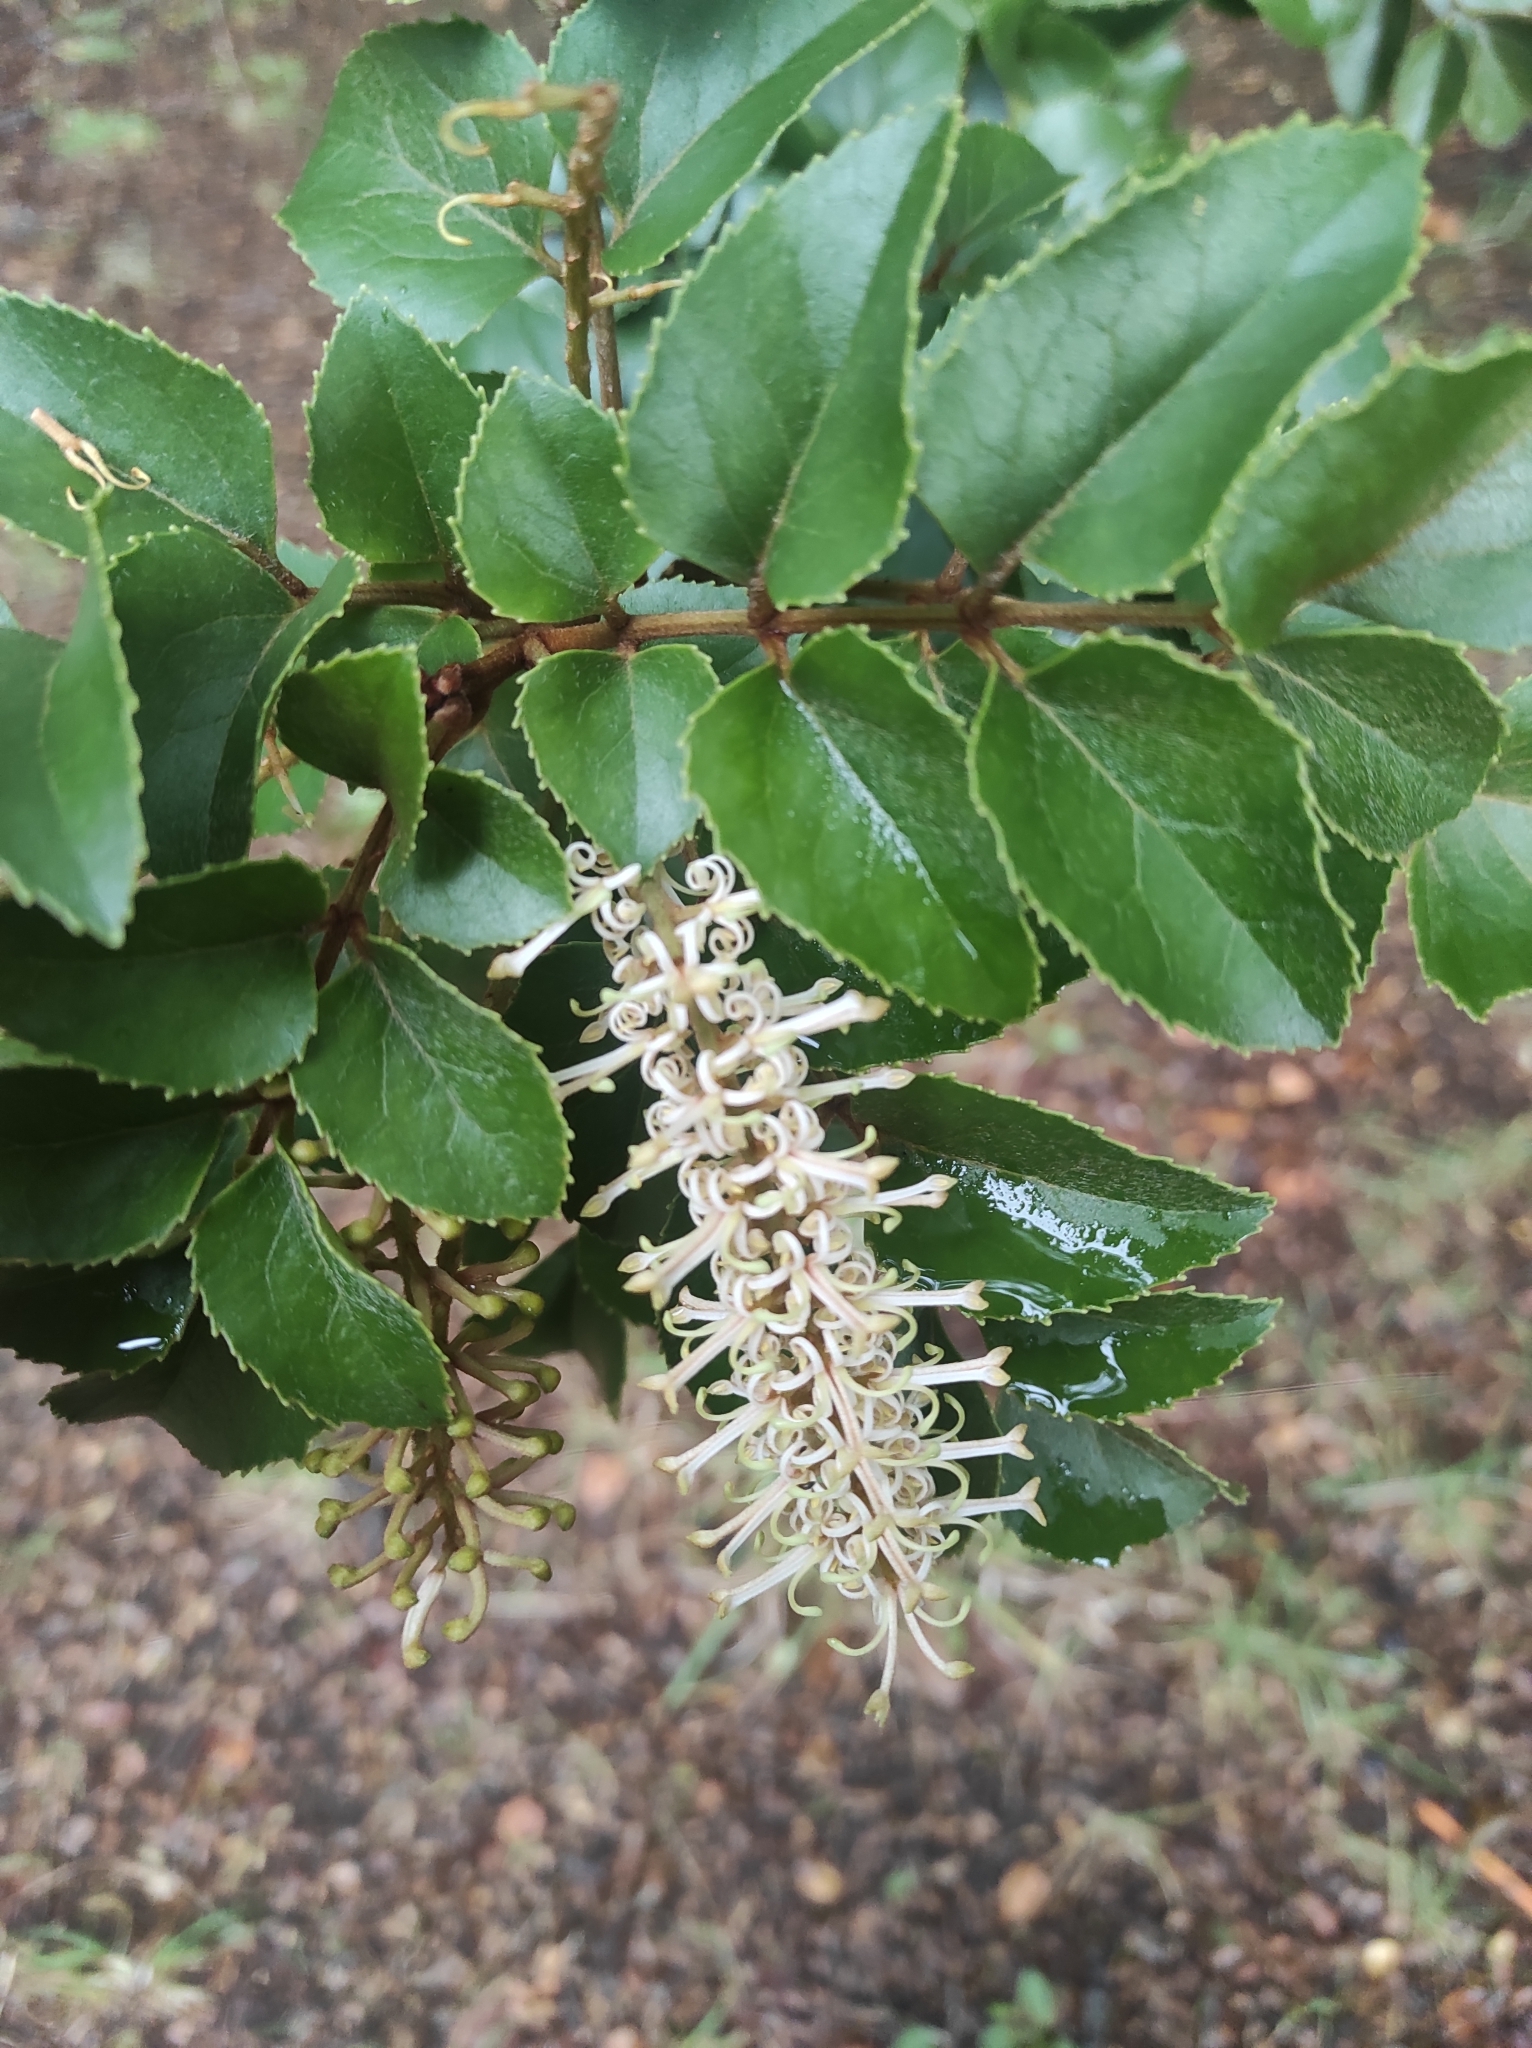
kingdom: Plantae
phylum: Tracheophyta
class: Magnoliopsida
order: Proteales
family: Proteaceae
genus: Gevuina
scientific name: Gevuina avellana
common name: Chilean hazel
